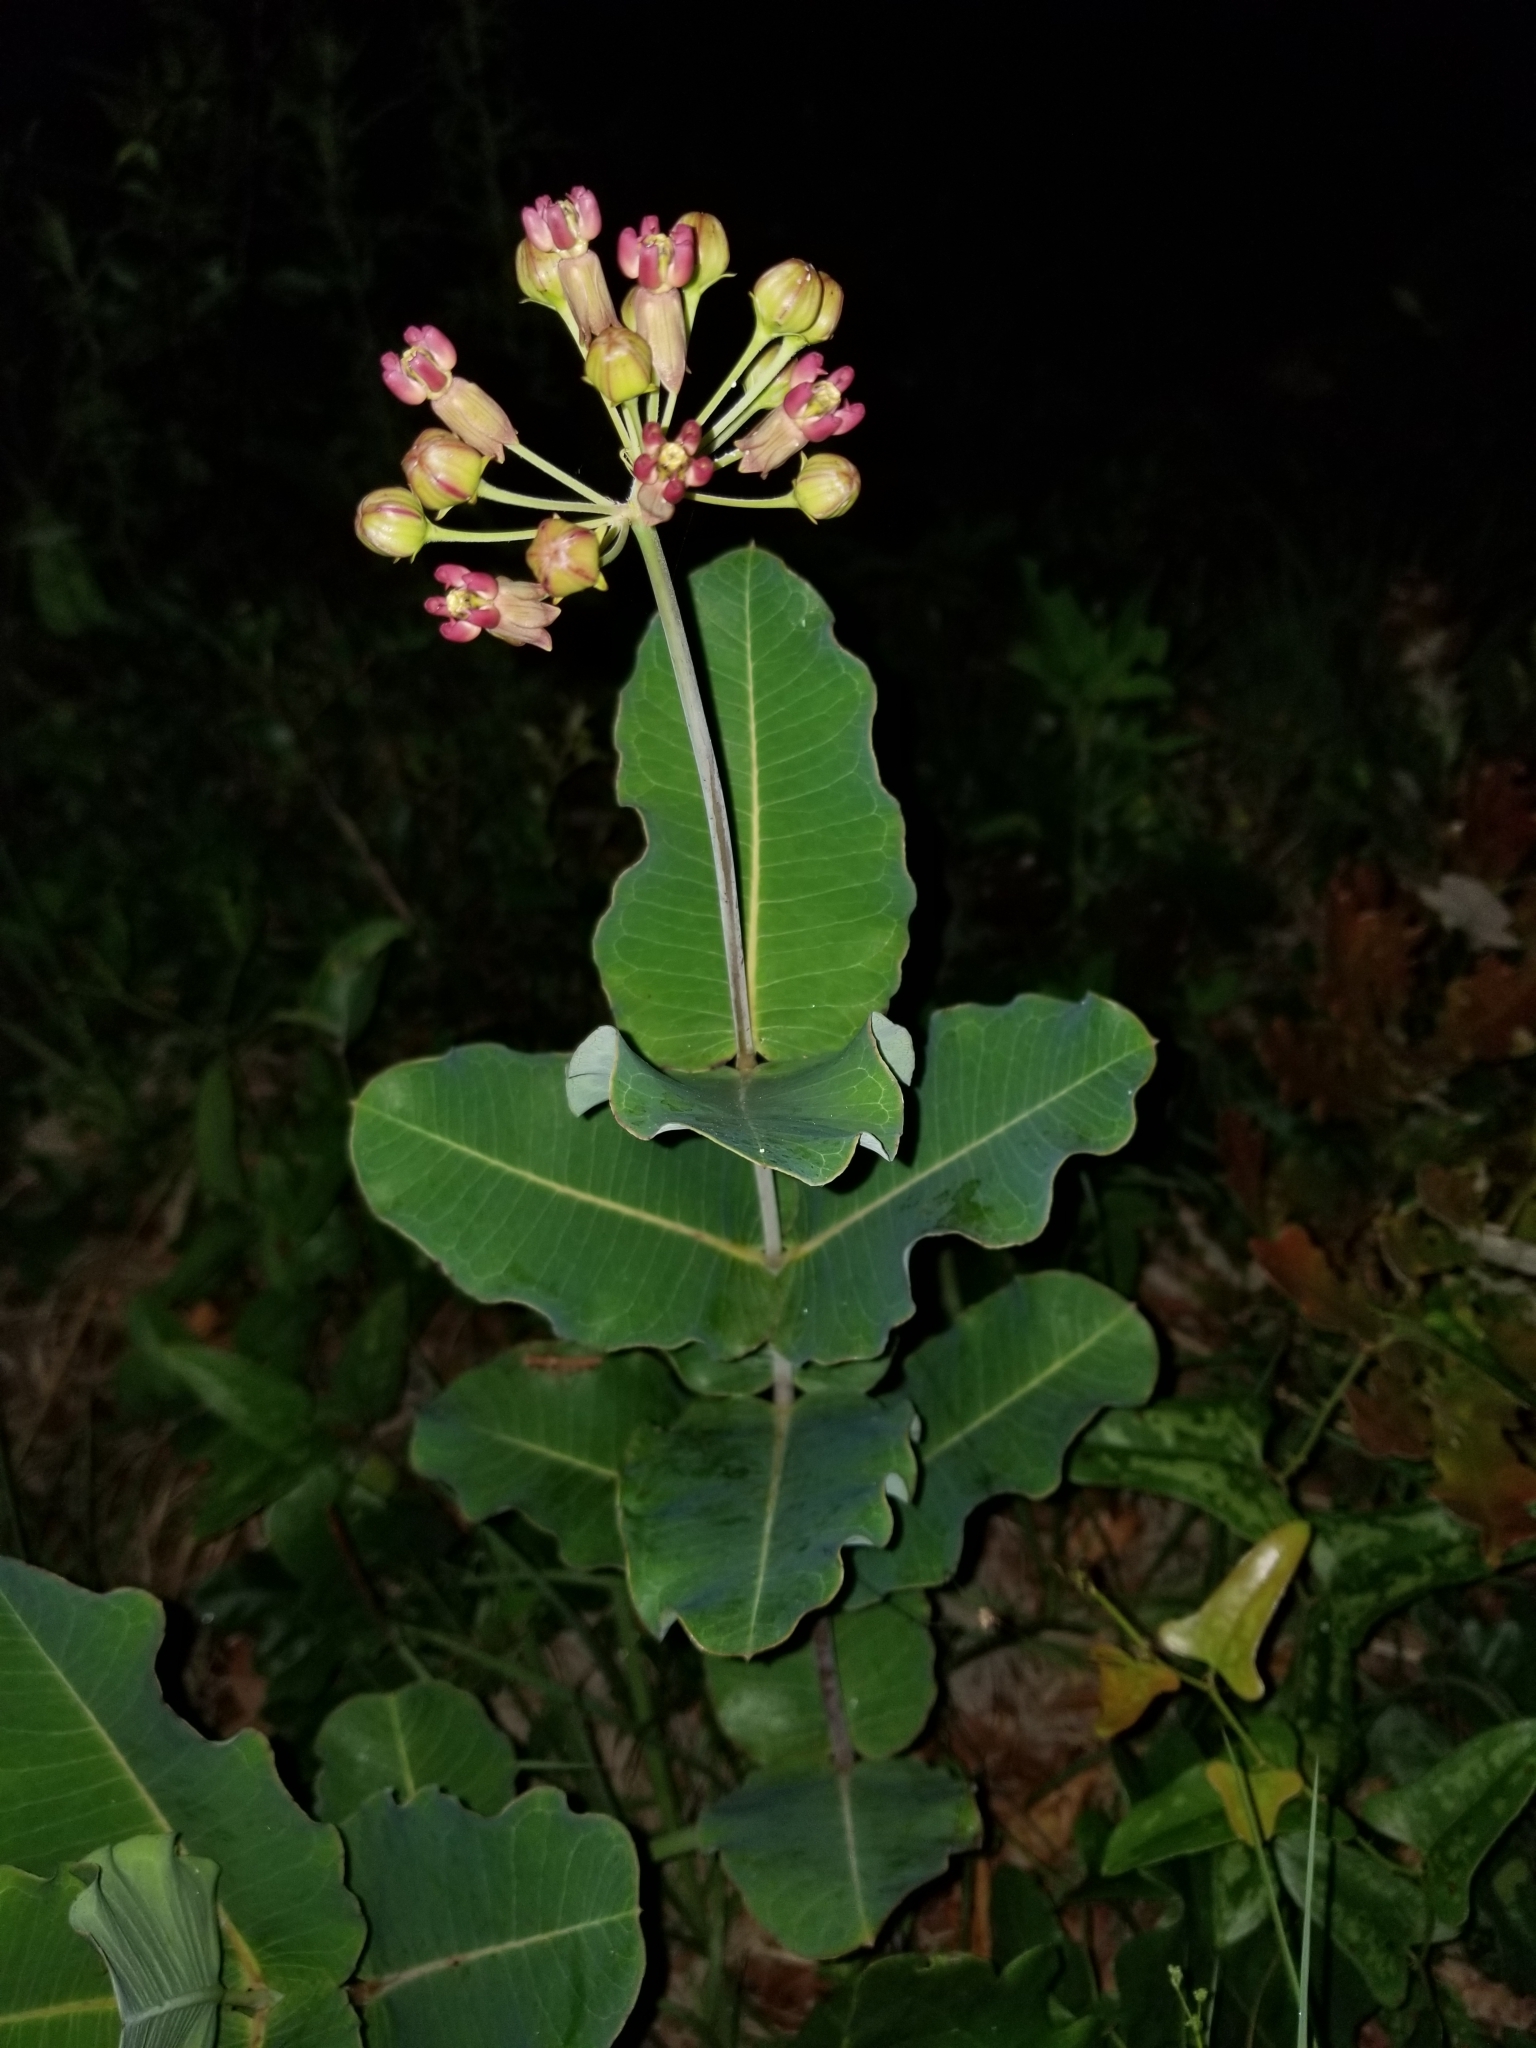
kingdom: Plantae
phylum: Tracheophyta
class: Magnoliopsida
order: Gentianales
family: Apocynaceae
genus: Asclepias
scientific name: Asclepias amplexicaulis
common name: Blunt-leaf milkweed
